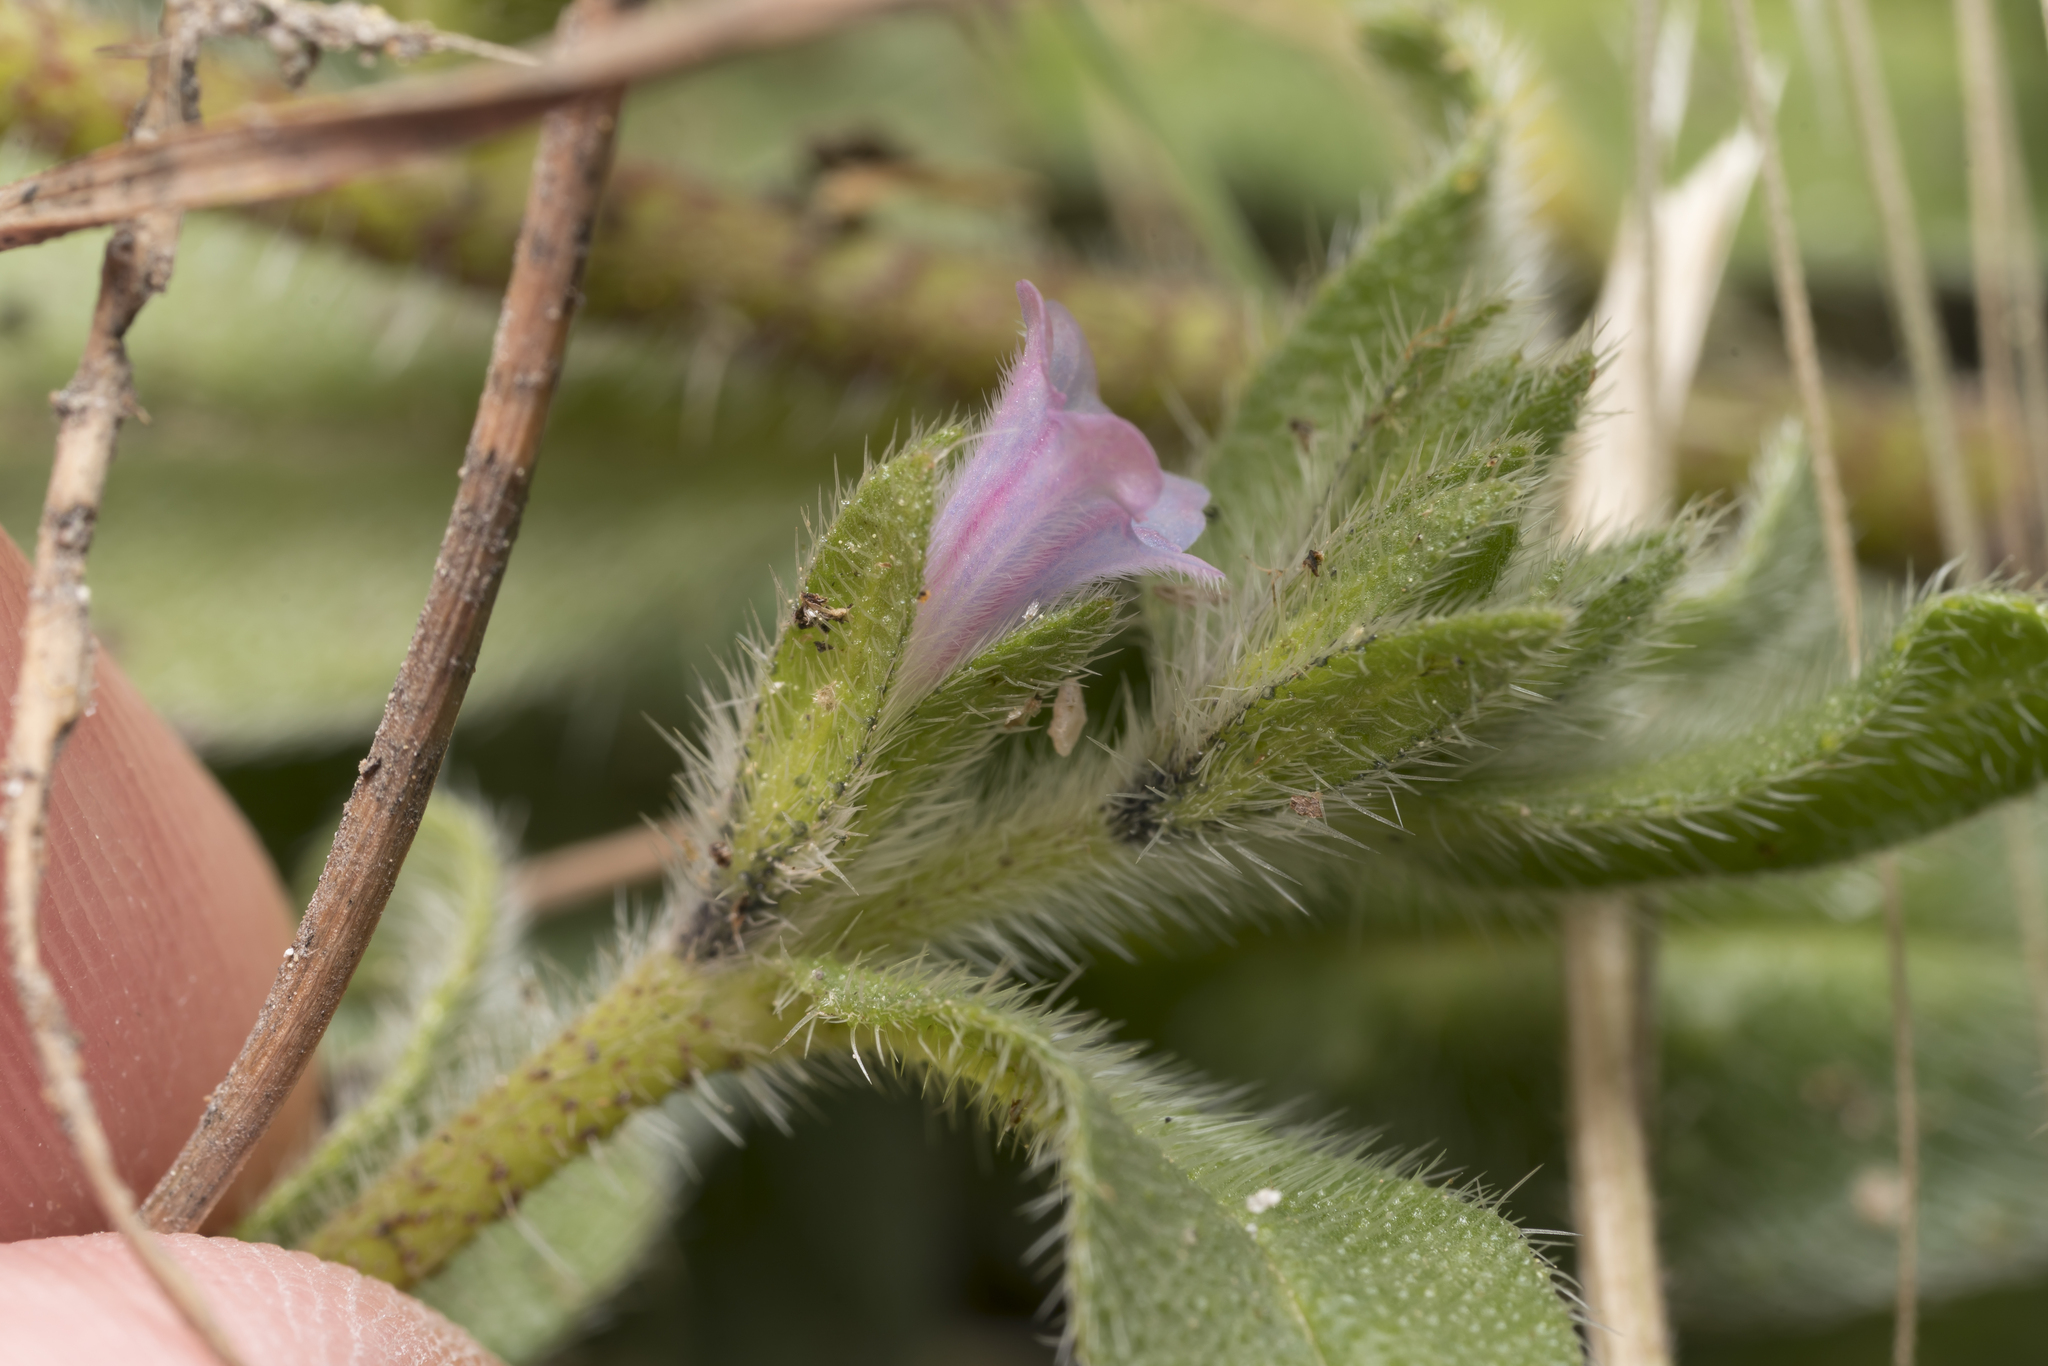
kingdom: Plantae
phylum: Tracheophyta
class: Magnoliopsida
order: Boraginales
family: Boraginaceae
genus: Echium
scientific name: Echium parviflorum
